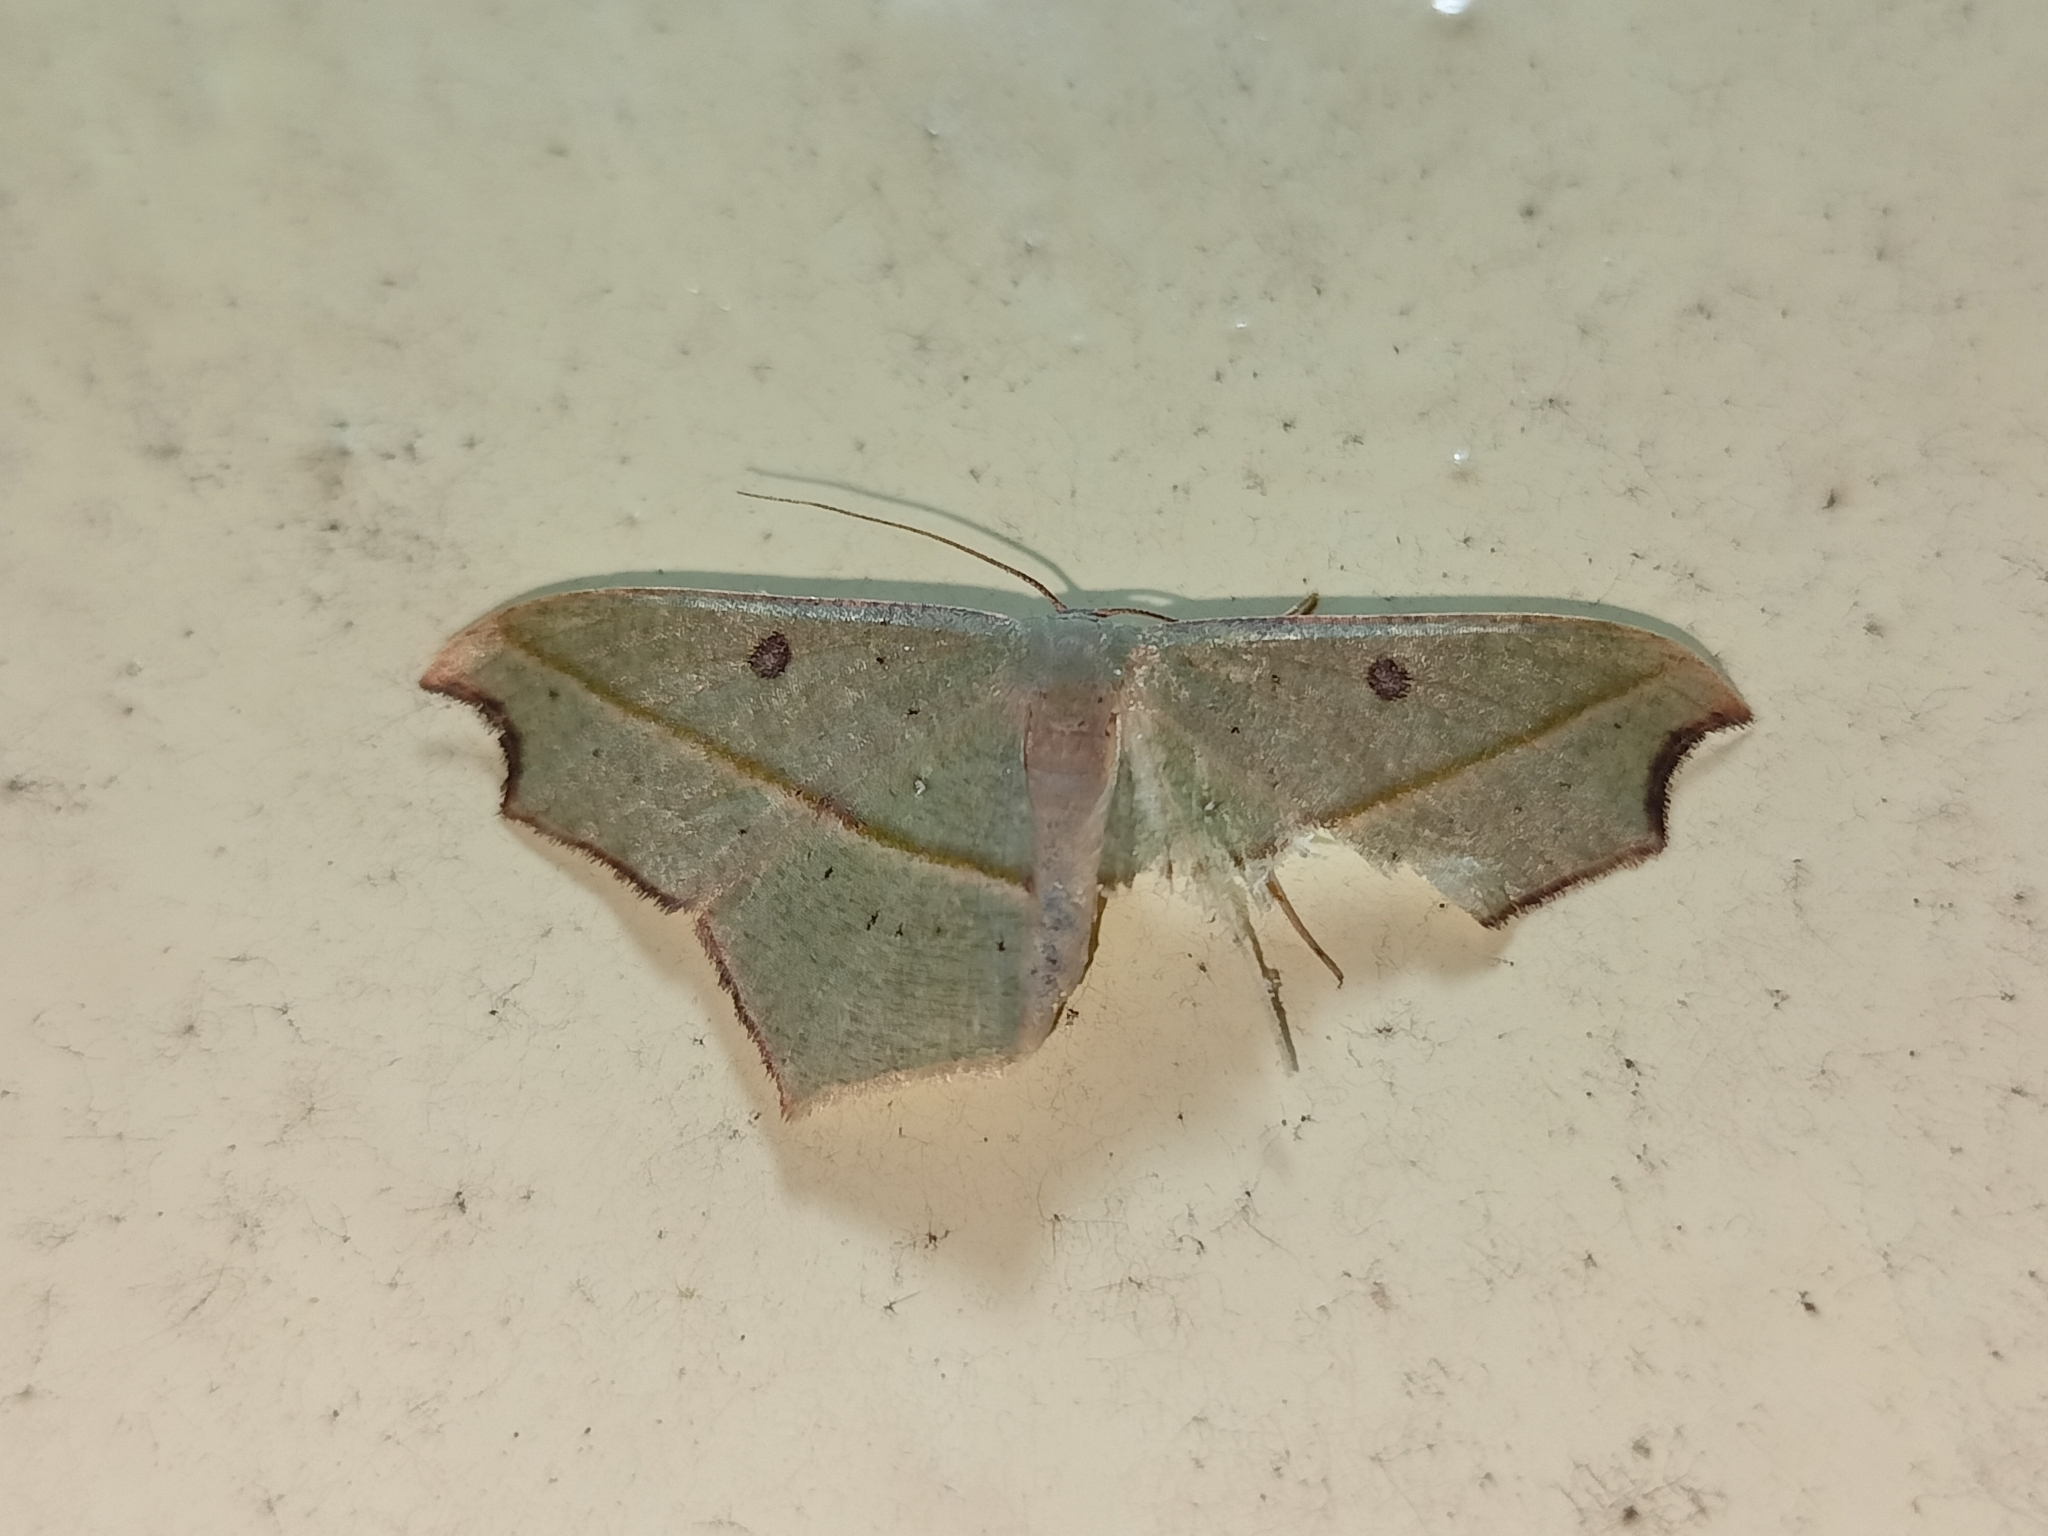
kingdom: Animalia
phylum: Arthropoda
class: Insecta
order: Lepidoptera
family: Geometridae
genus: Traminda
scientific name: Traminda aventiaria
